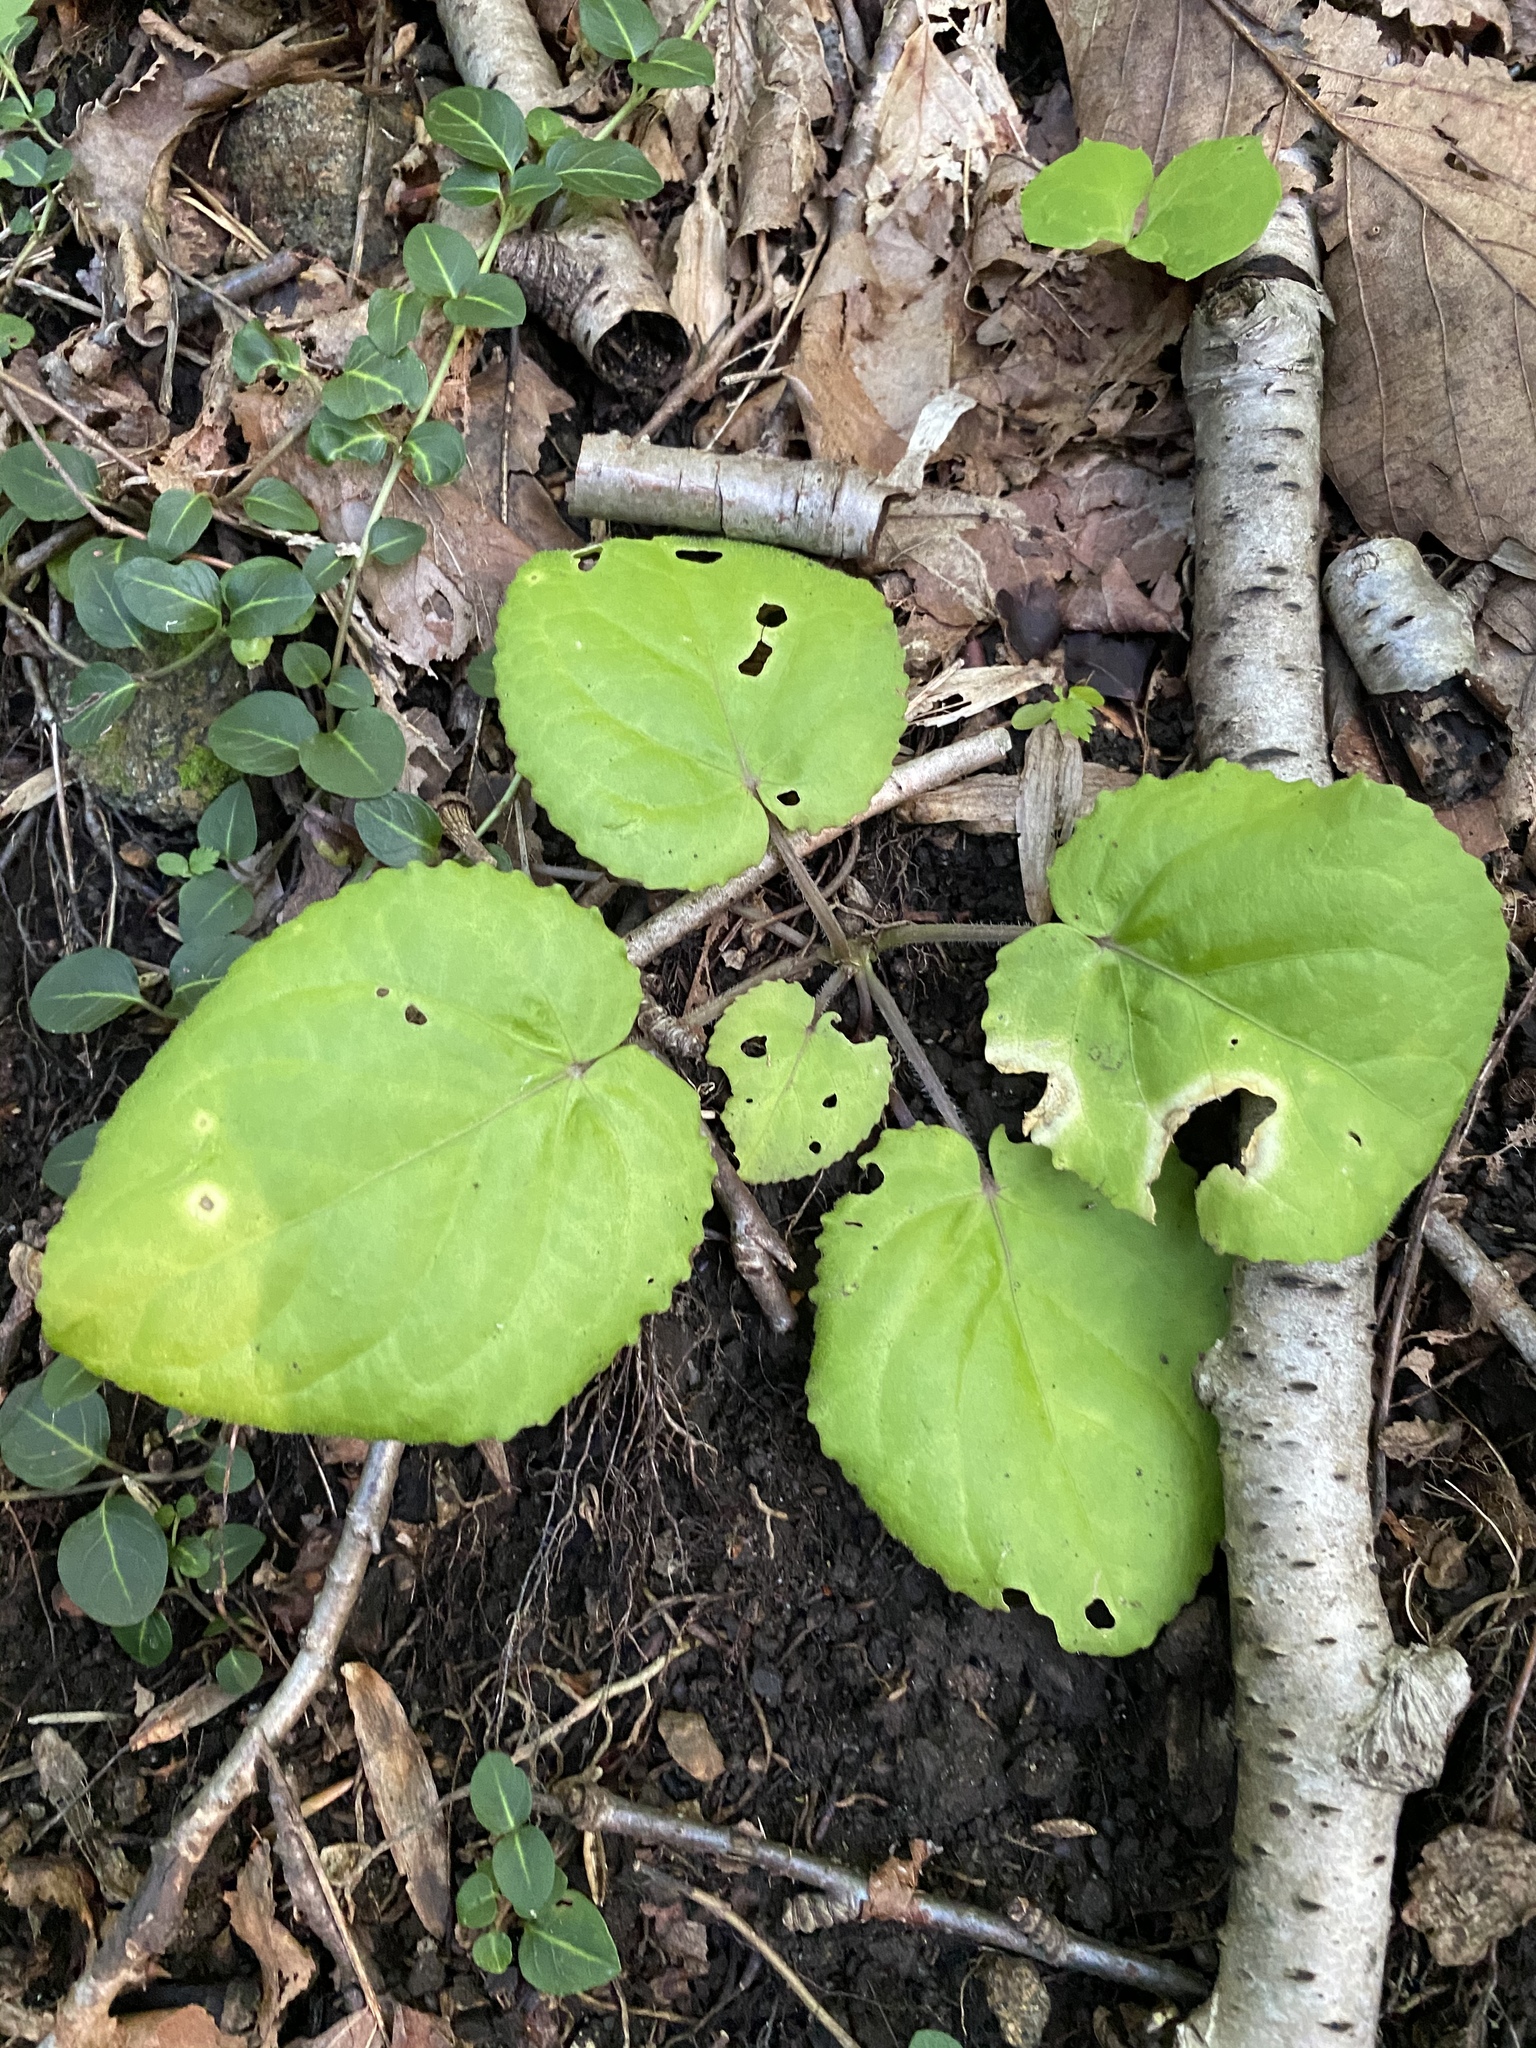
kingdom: Plantae
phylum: Tracheophyta
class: Magnoliopsida
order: Malpighiales
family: Violaceae
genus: Viola
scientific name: Viola rotundifolia
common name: Early yellow violet
